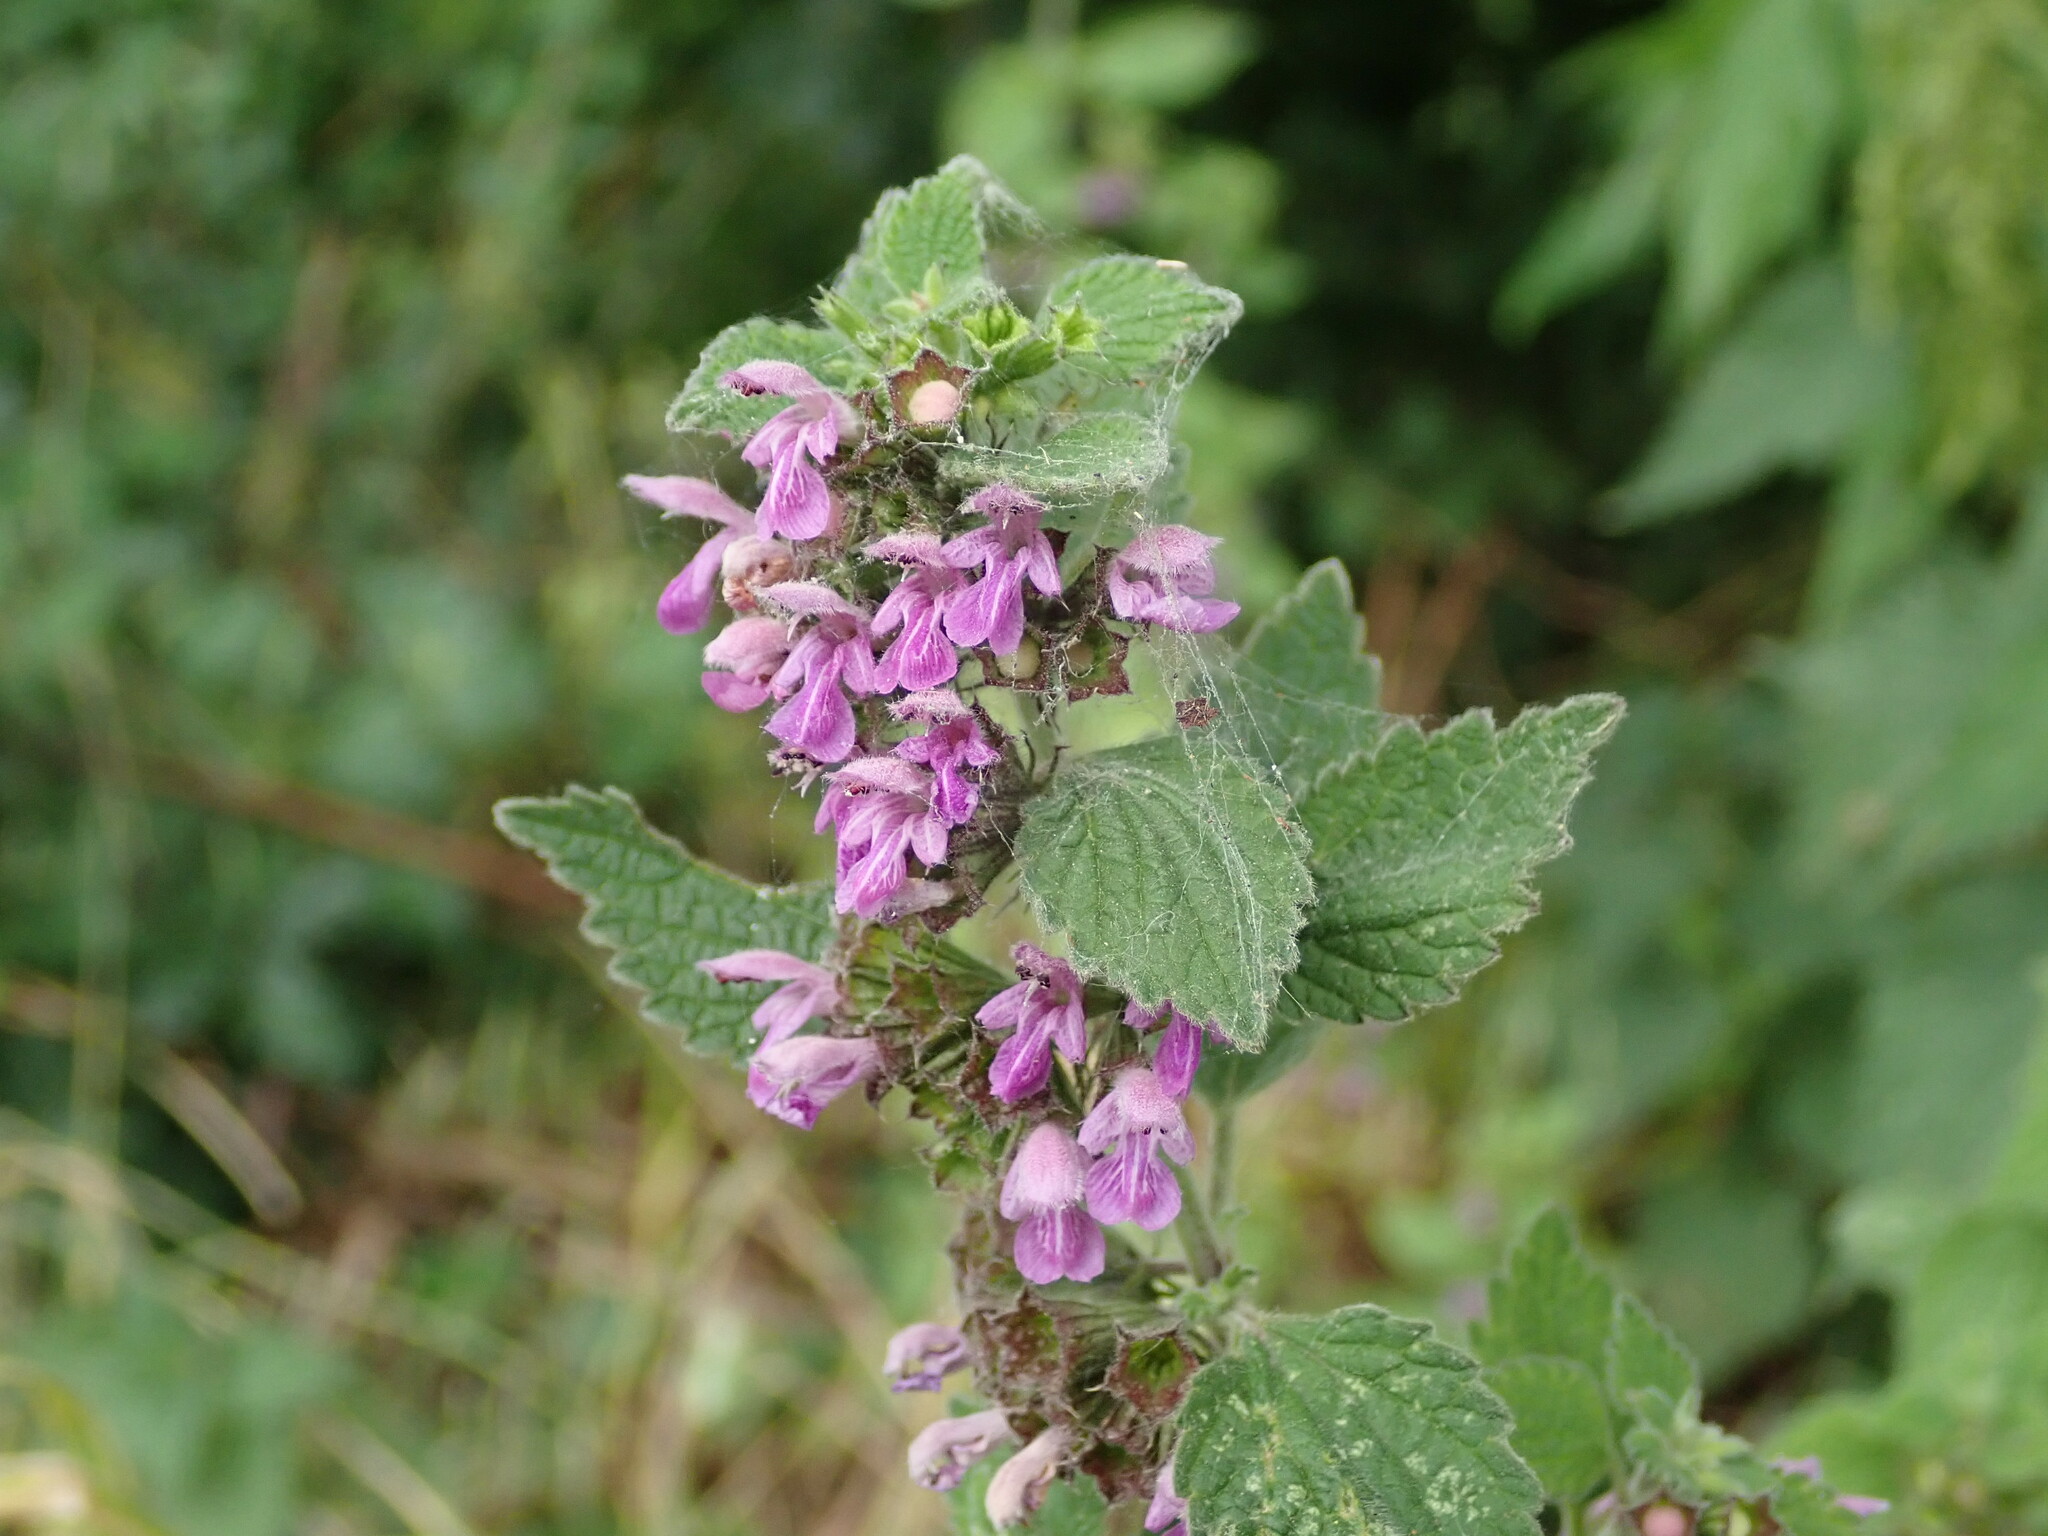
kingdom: Plantae
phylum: Tracheophyta
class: Magnoliopsida
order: Lamiales
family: Lamiaceae
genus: Ballota
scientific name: Ballota nigra
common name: Black horehound
